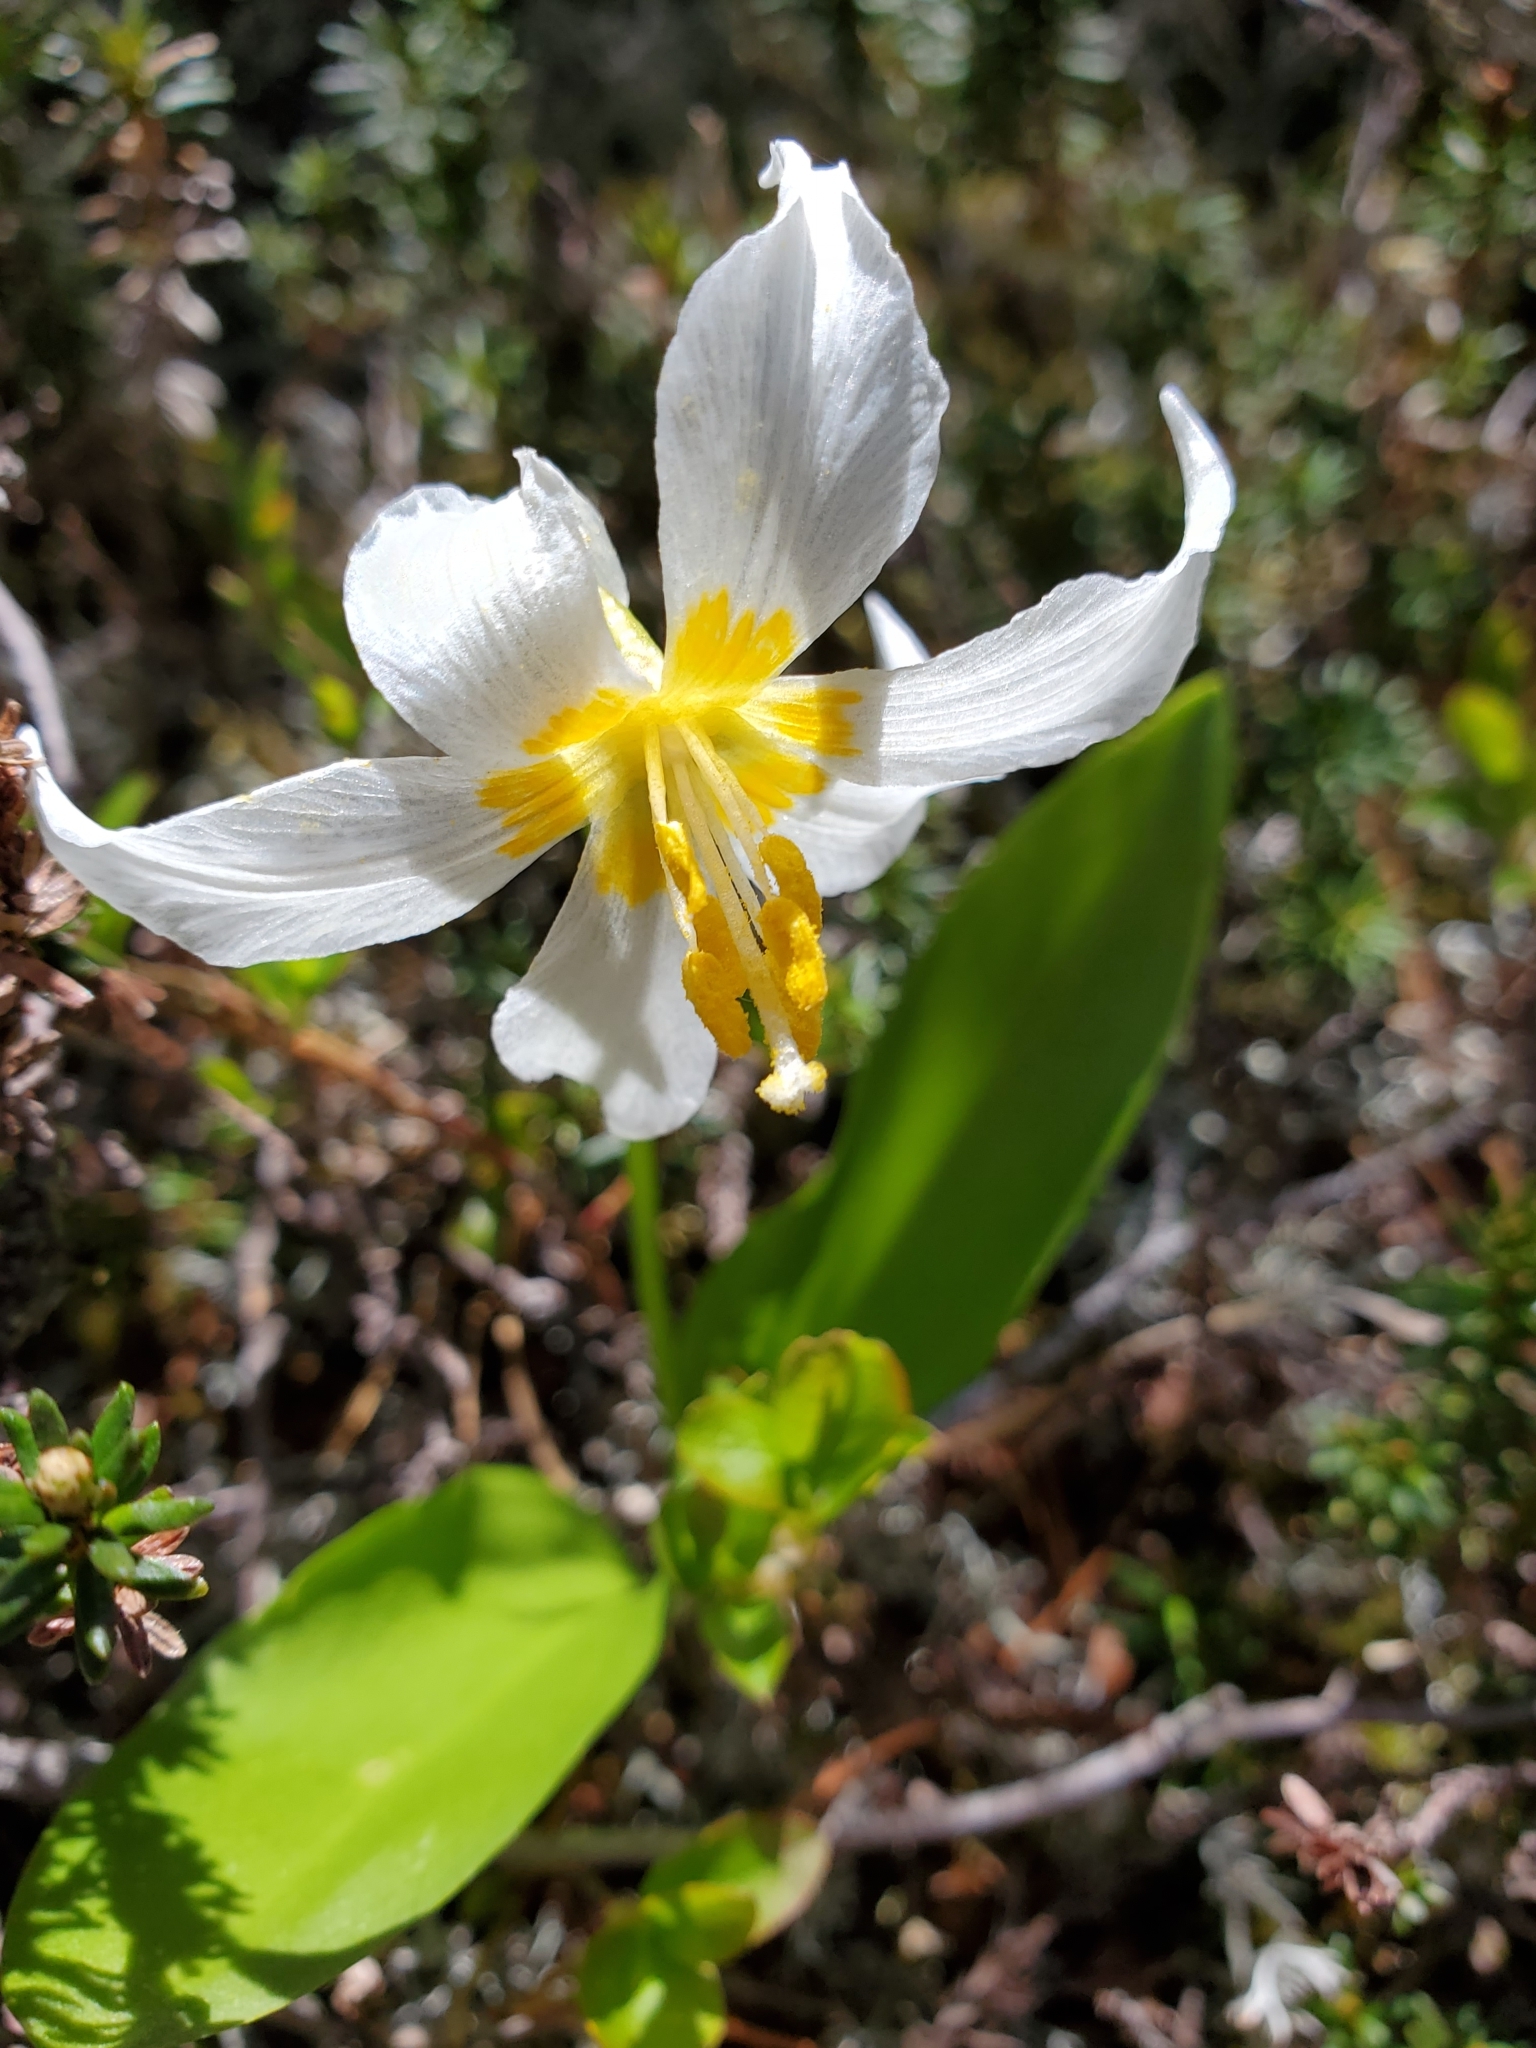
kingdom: Plantae
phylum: Tracheophyta
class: Liliopsida
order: Liliales
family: Liliaceae
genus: Erythronium
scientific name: Erythronium montanum
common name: Avalanche lily
